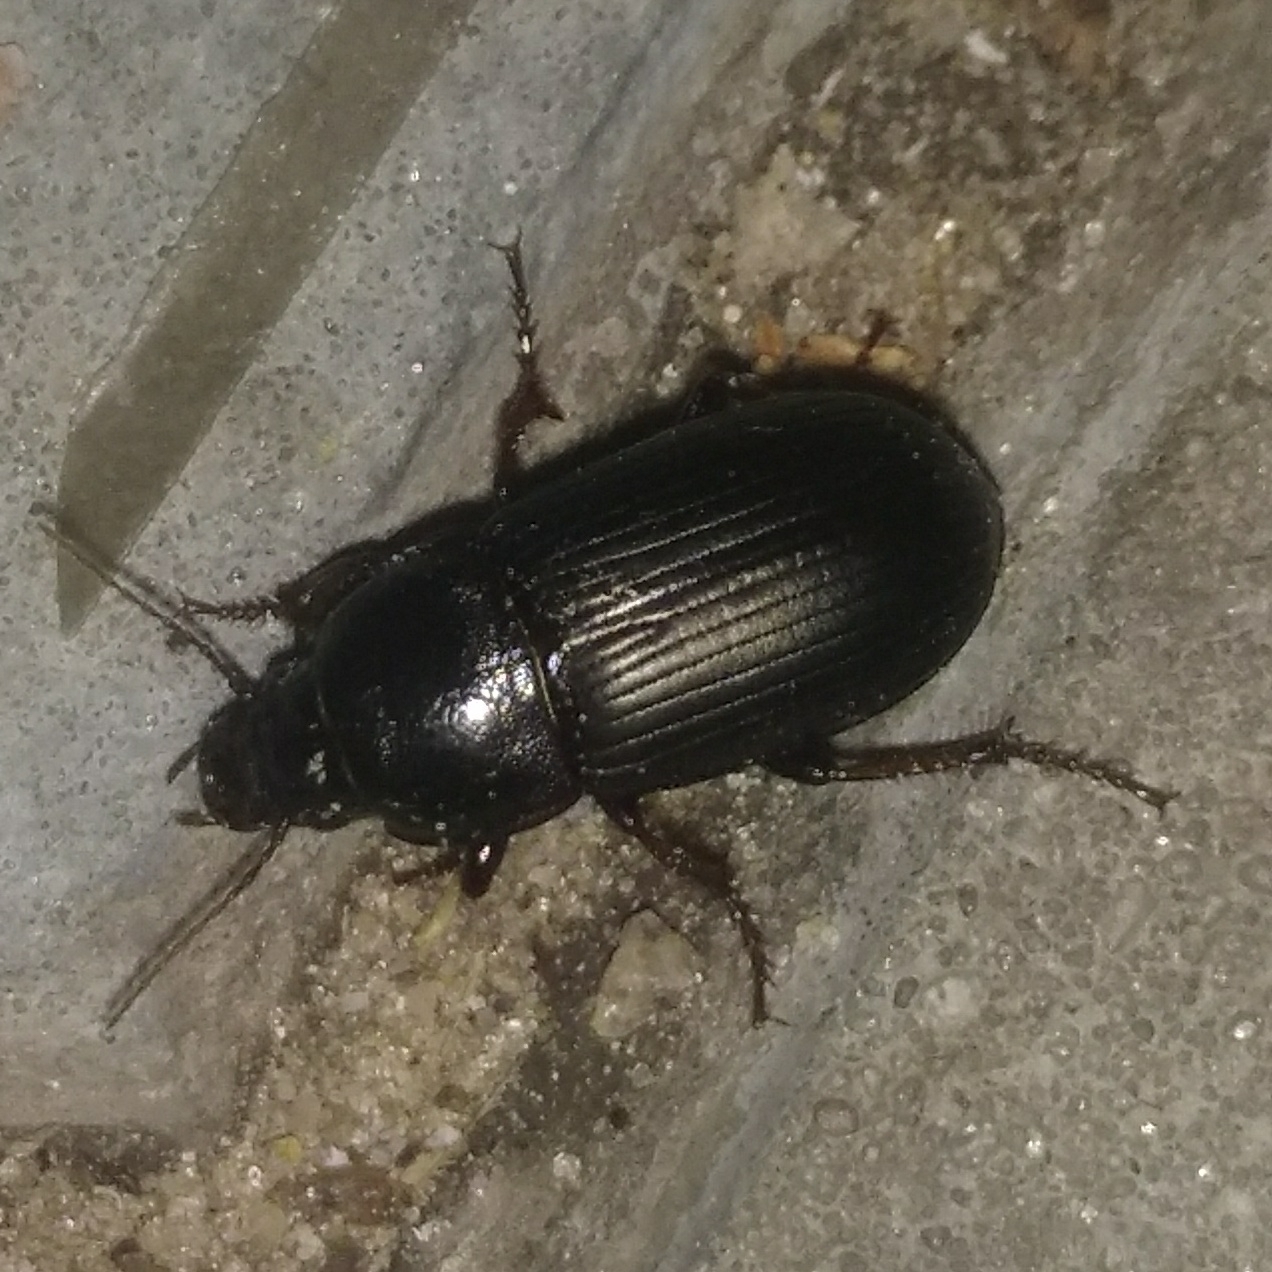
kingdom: Animalia
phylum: Arthropoda
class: Insecta
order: Coleoptera
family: Carabidae
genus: Zabrus
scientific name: Zabrus tenebrioides
